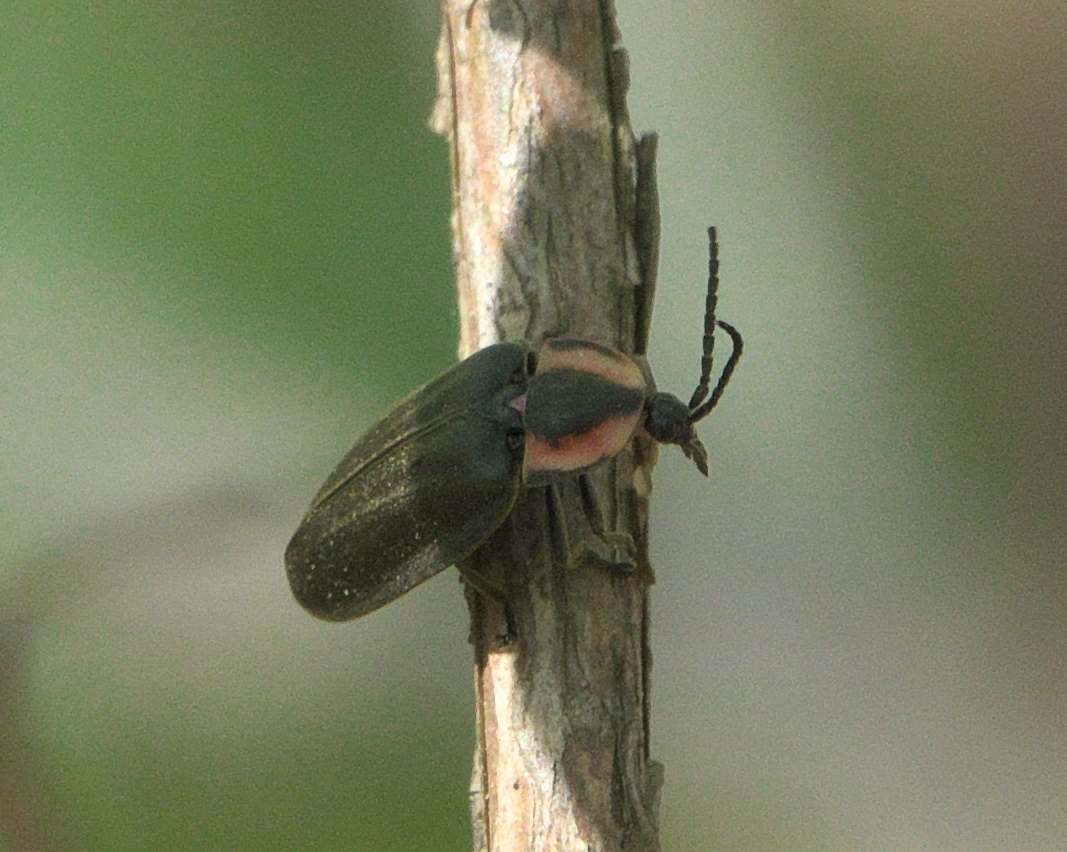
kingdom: Animalia
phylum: Arthropoda
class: Insecta
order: Coleoptera
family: Lampyridae
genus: Photinus
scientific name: Photinus corrusca
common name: Winter firefly
